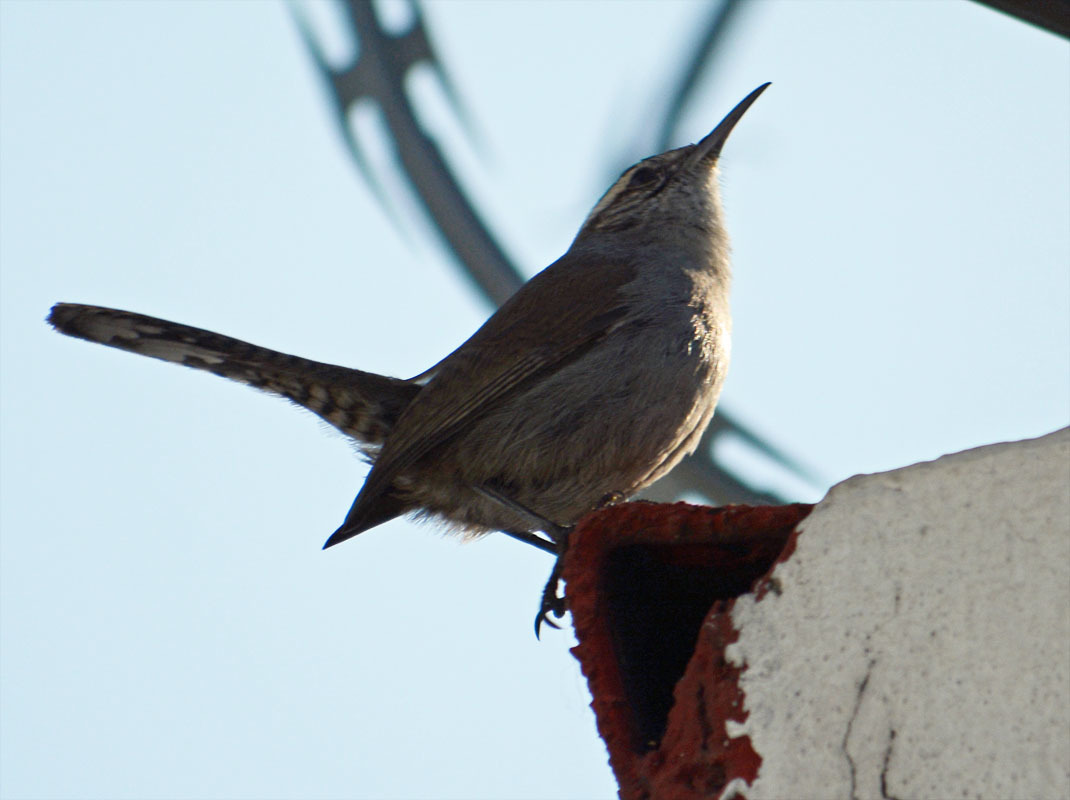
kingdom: Animalia
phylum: Chordata
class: Aves
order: Passeriformes
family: Troglodytidae
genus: Thryomanes
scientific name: Thryomanes bewickii
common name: Bewick's wren
